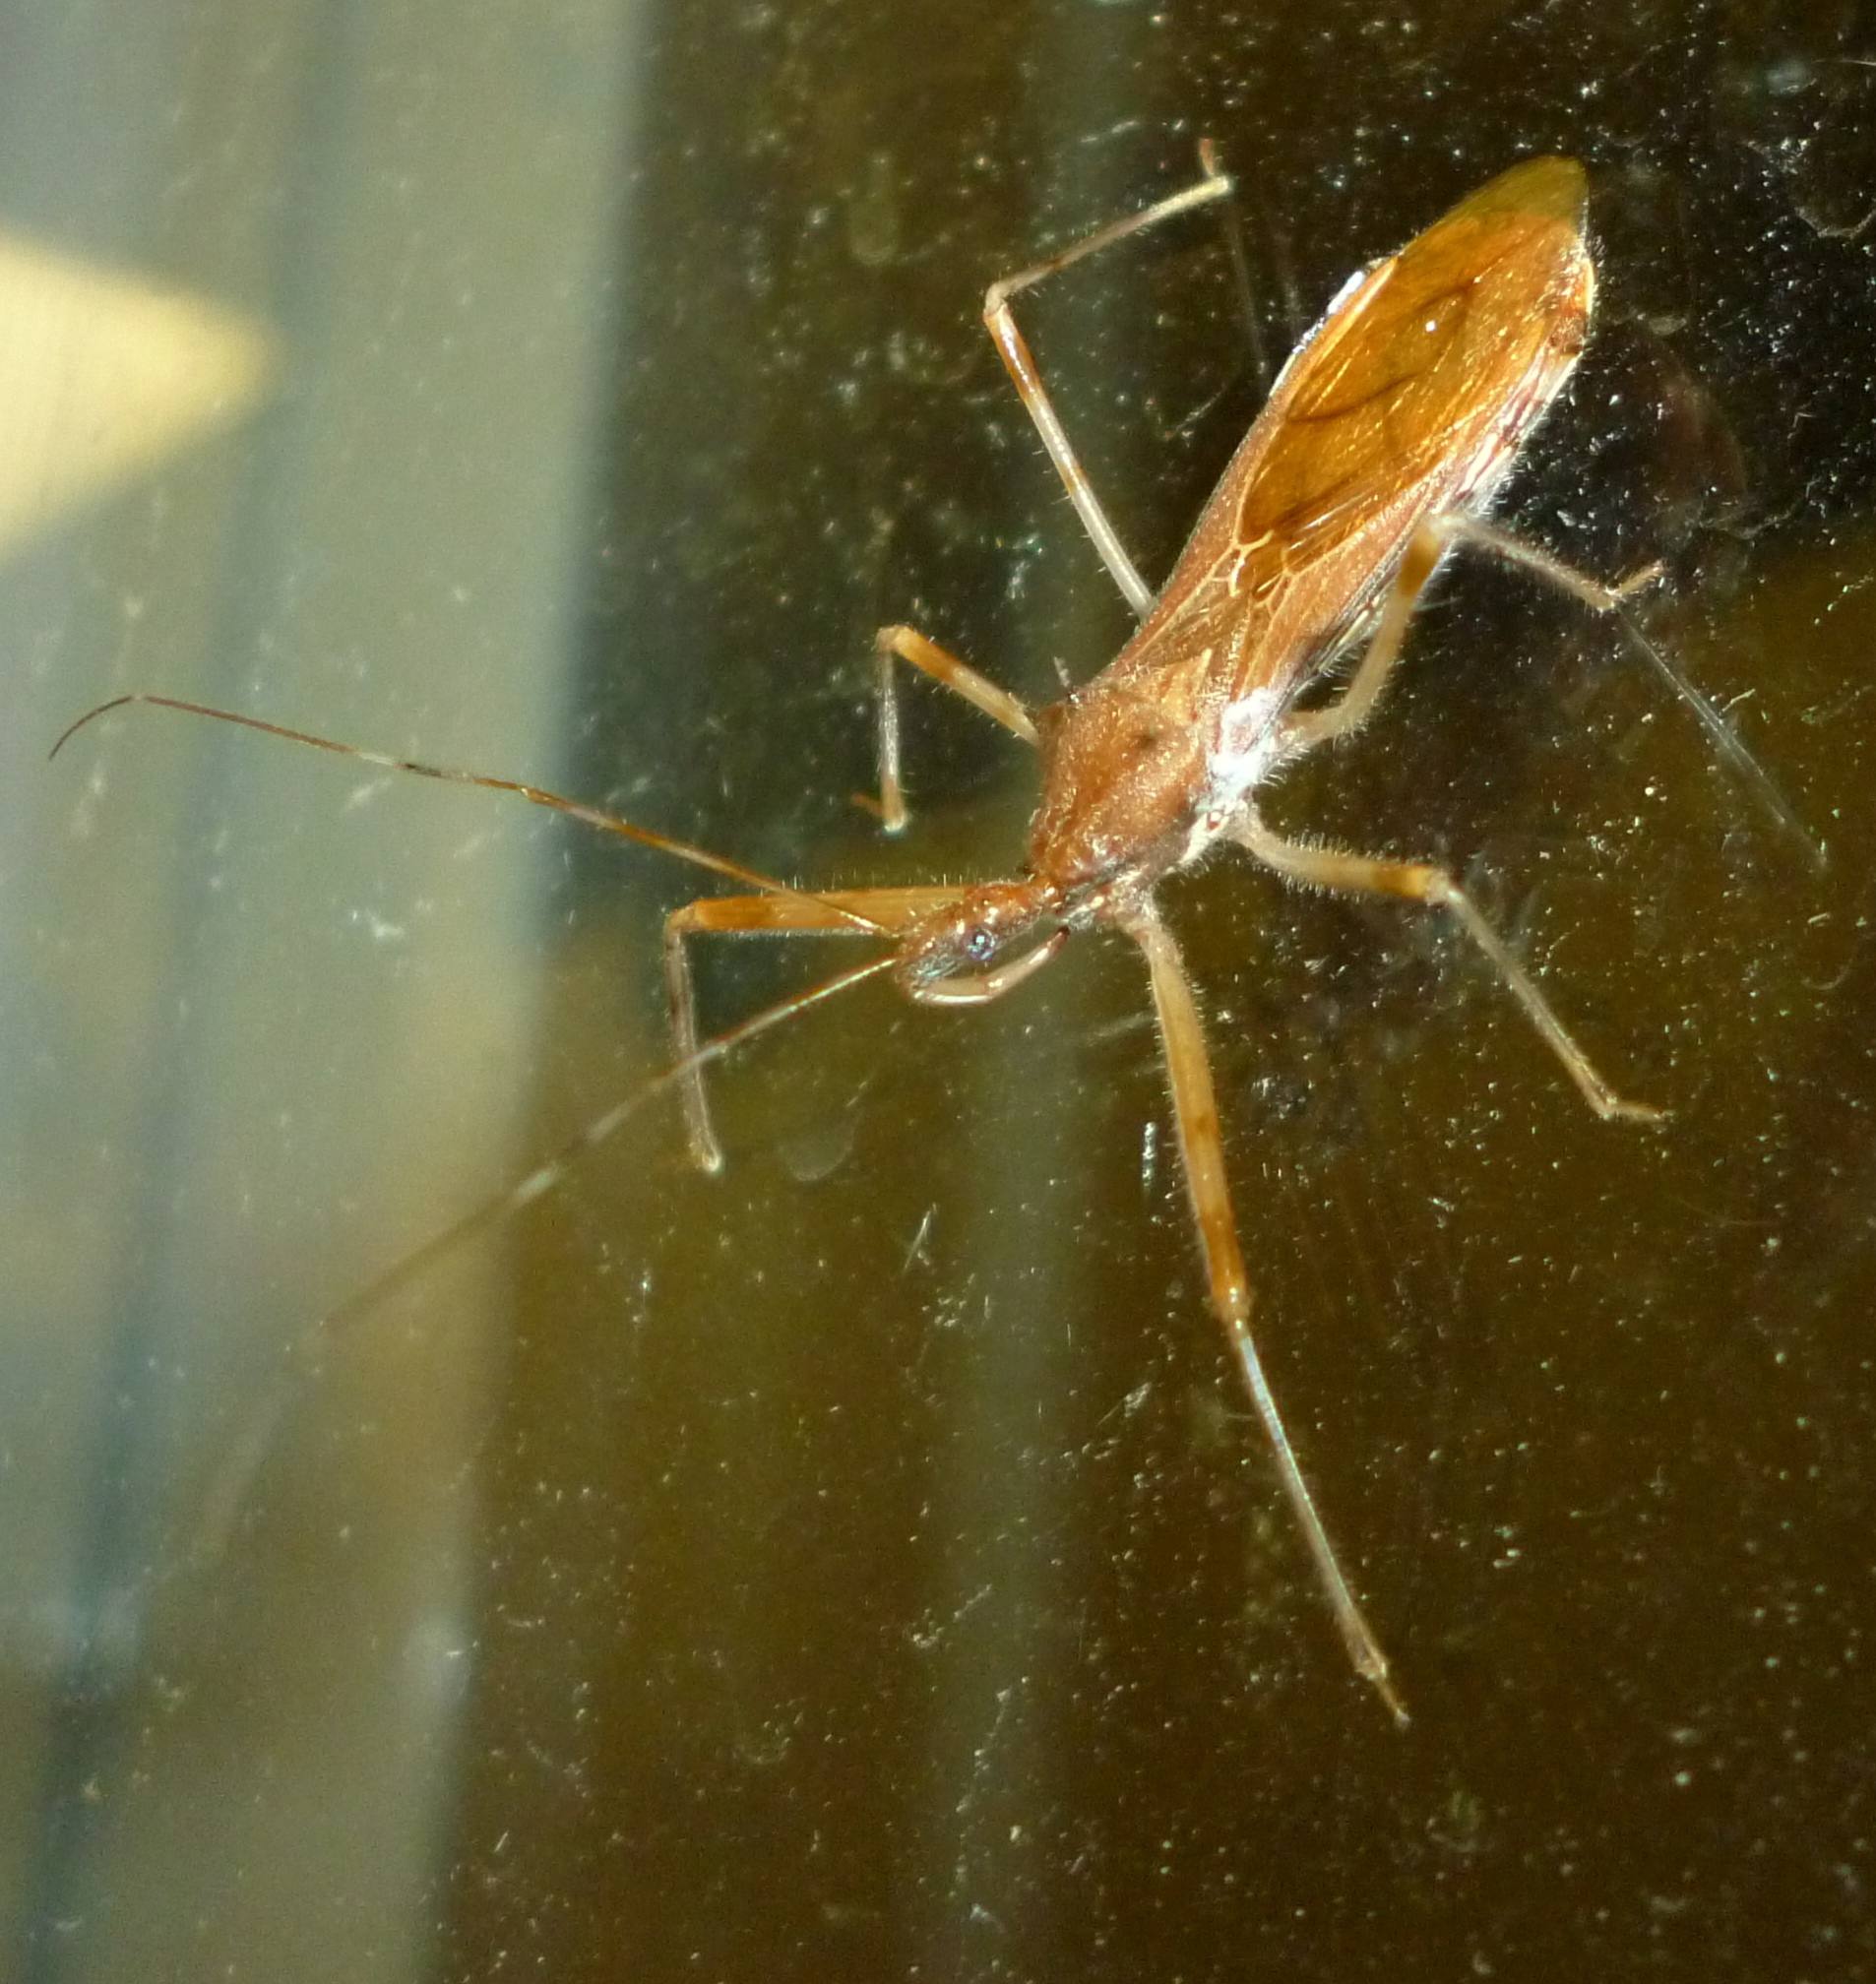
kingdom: Animalia
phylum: Arthropoda
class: Insecta
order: Hemiptera
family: Reduviidae
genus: Rocconota
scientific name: Rocconota annulicornis
